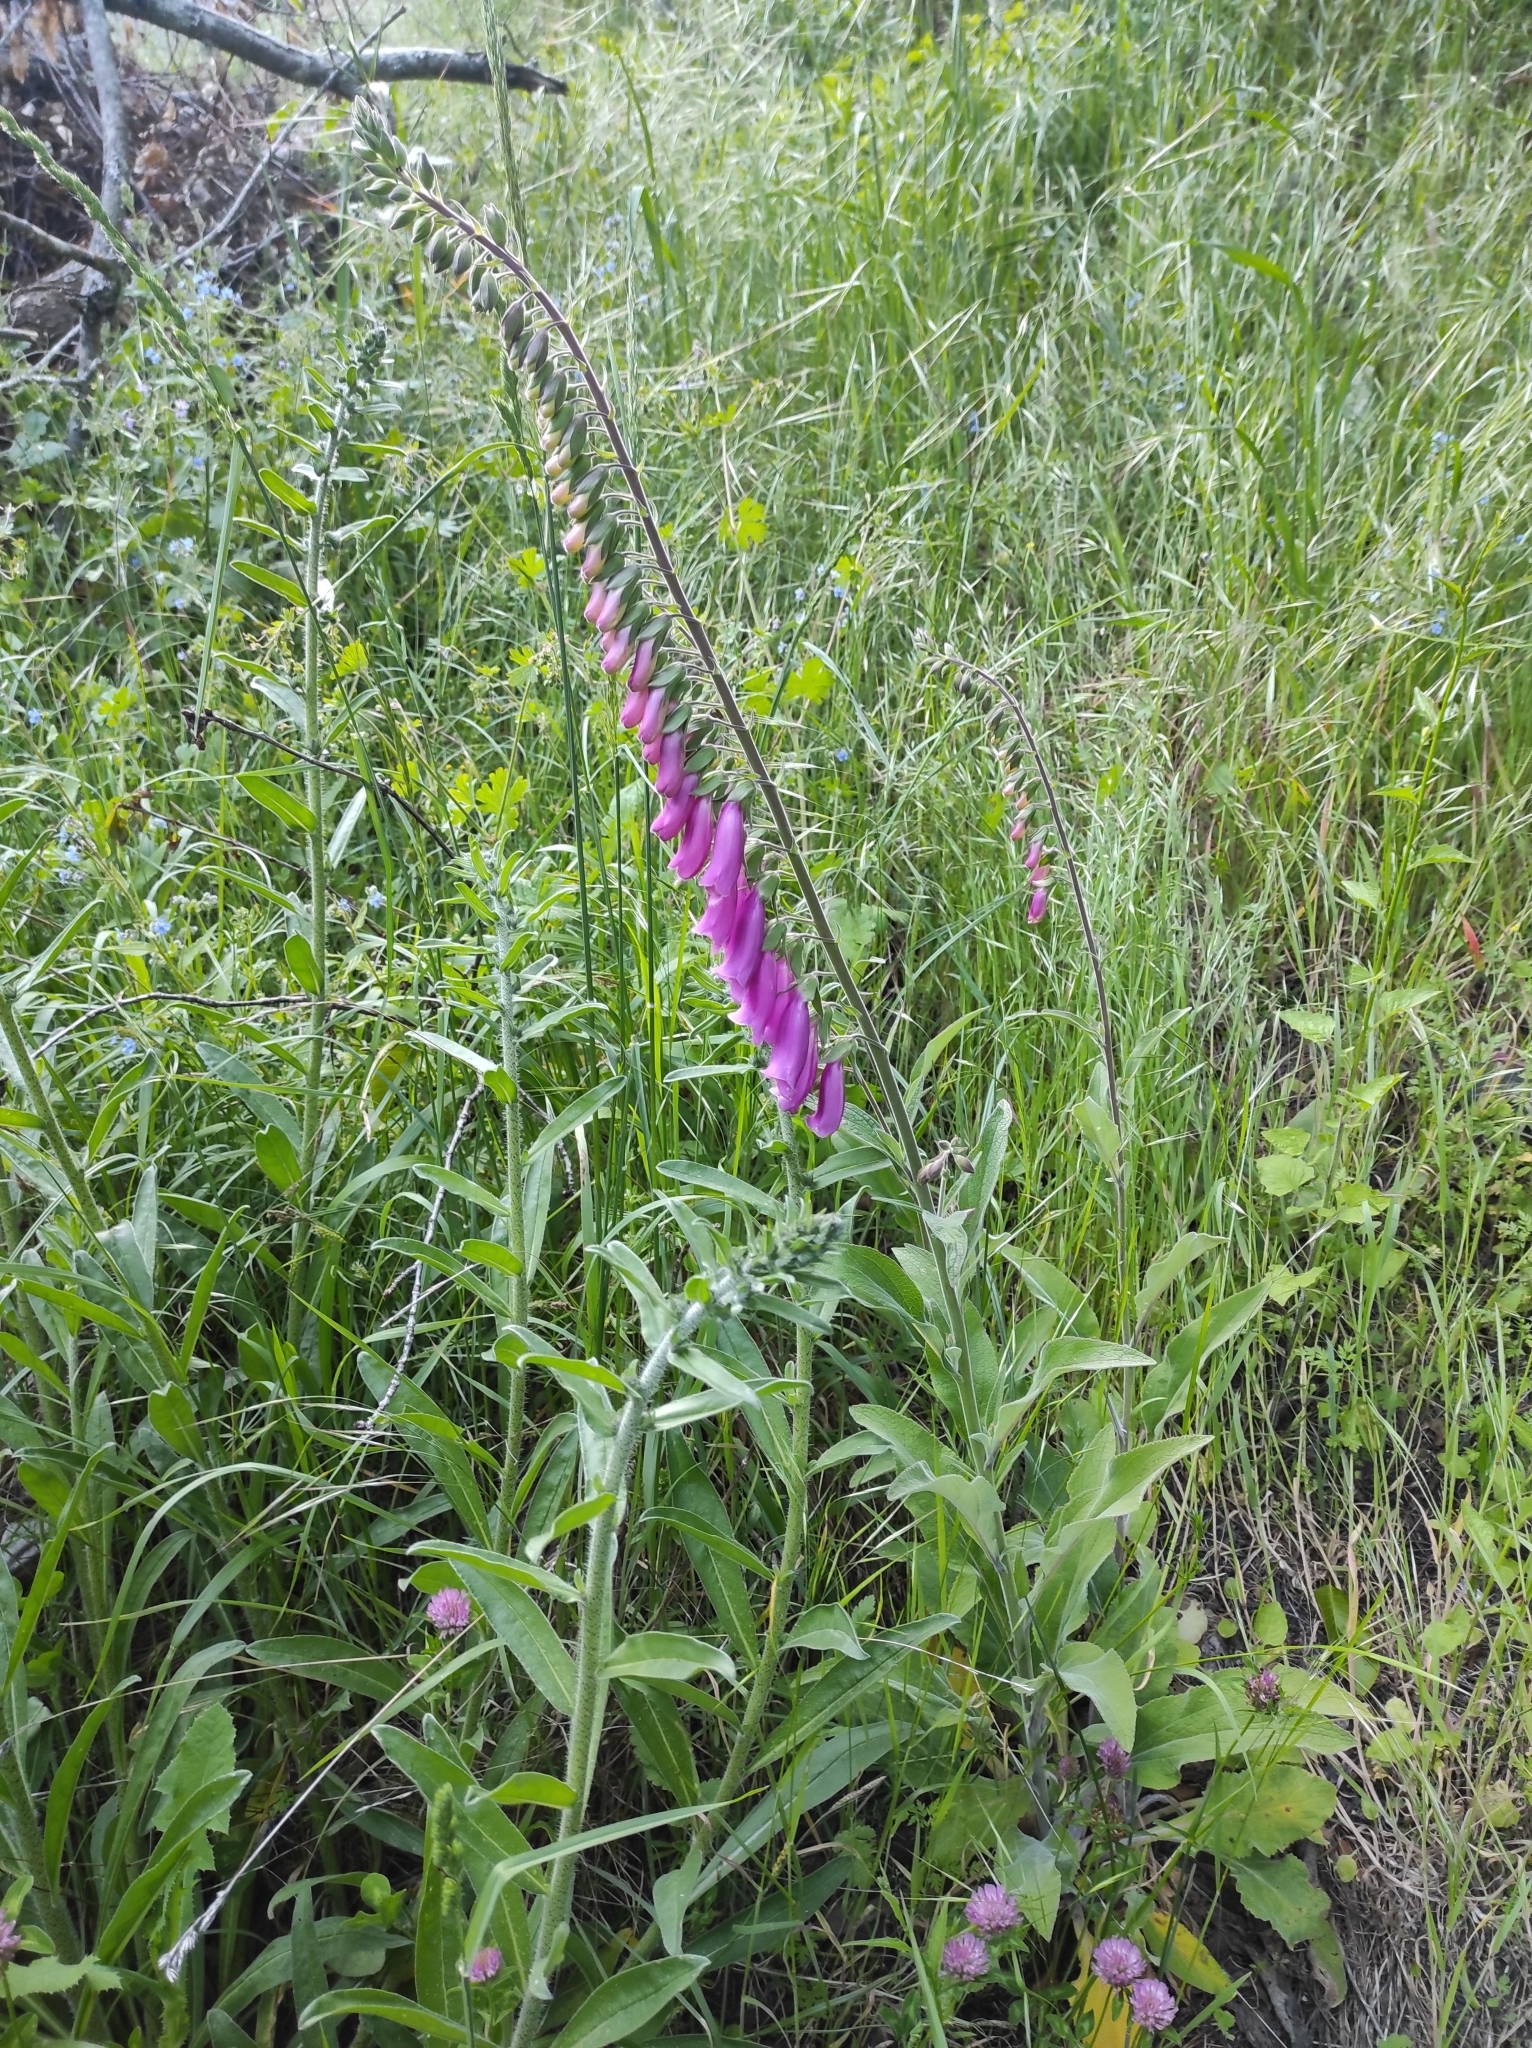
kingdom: Plantae
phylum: Tracheophyta
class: Magnoliopsida
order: Lamiales
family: Plantaginaceae
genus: Digitalis
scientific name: Digitalis purpurea
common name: Foxglove
